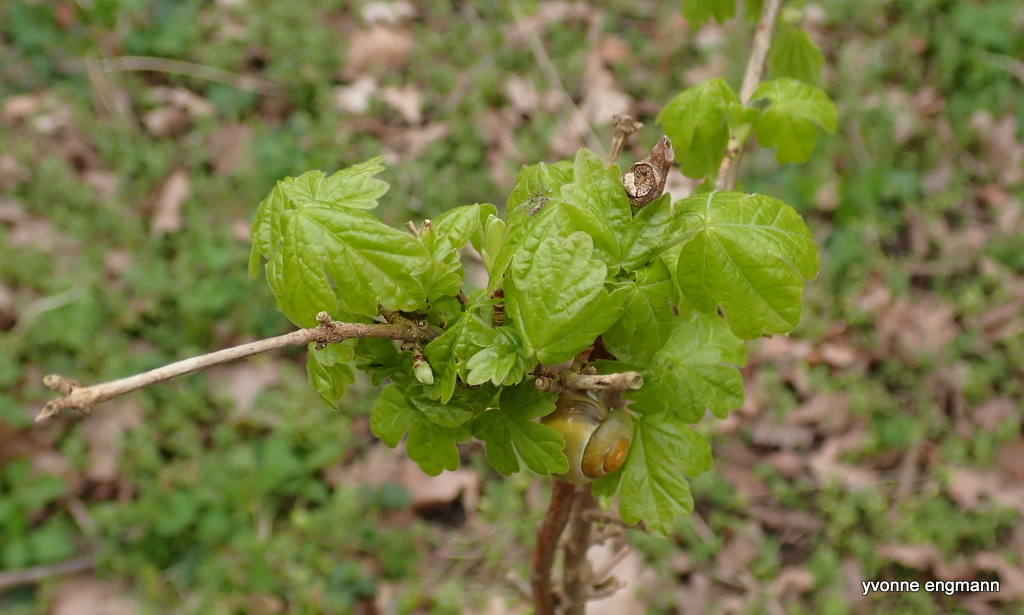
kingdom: Plantae
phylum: Tracheophyta
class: Magnoliopsida
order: Sapindales
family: Sapindaceae
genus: Acer
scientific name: Acer campestre
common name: Field maple
